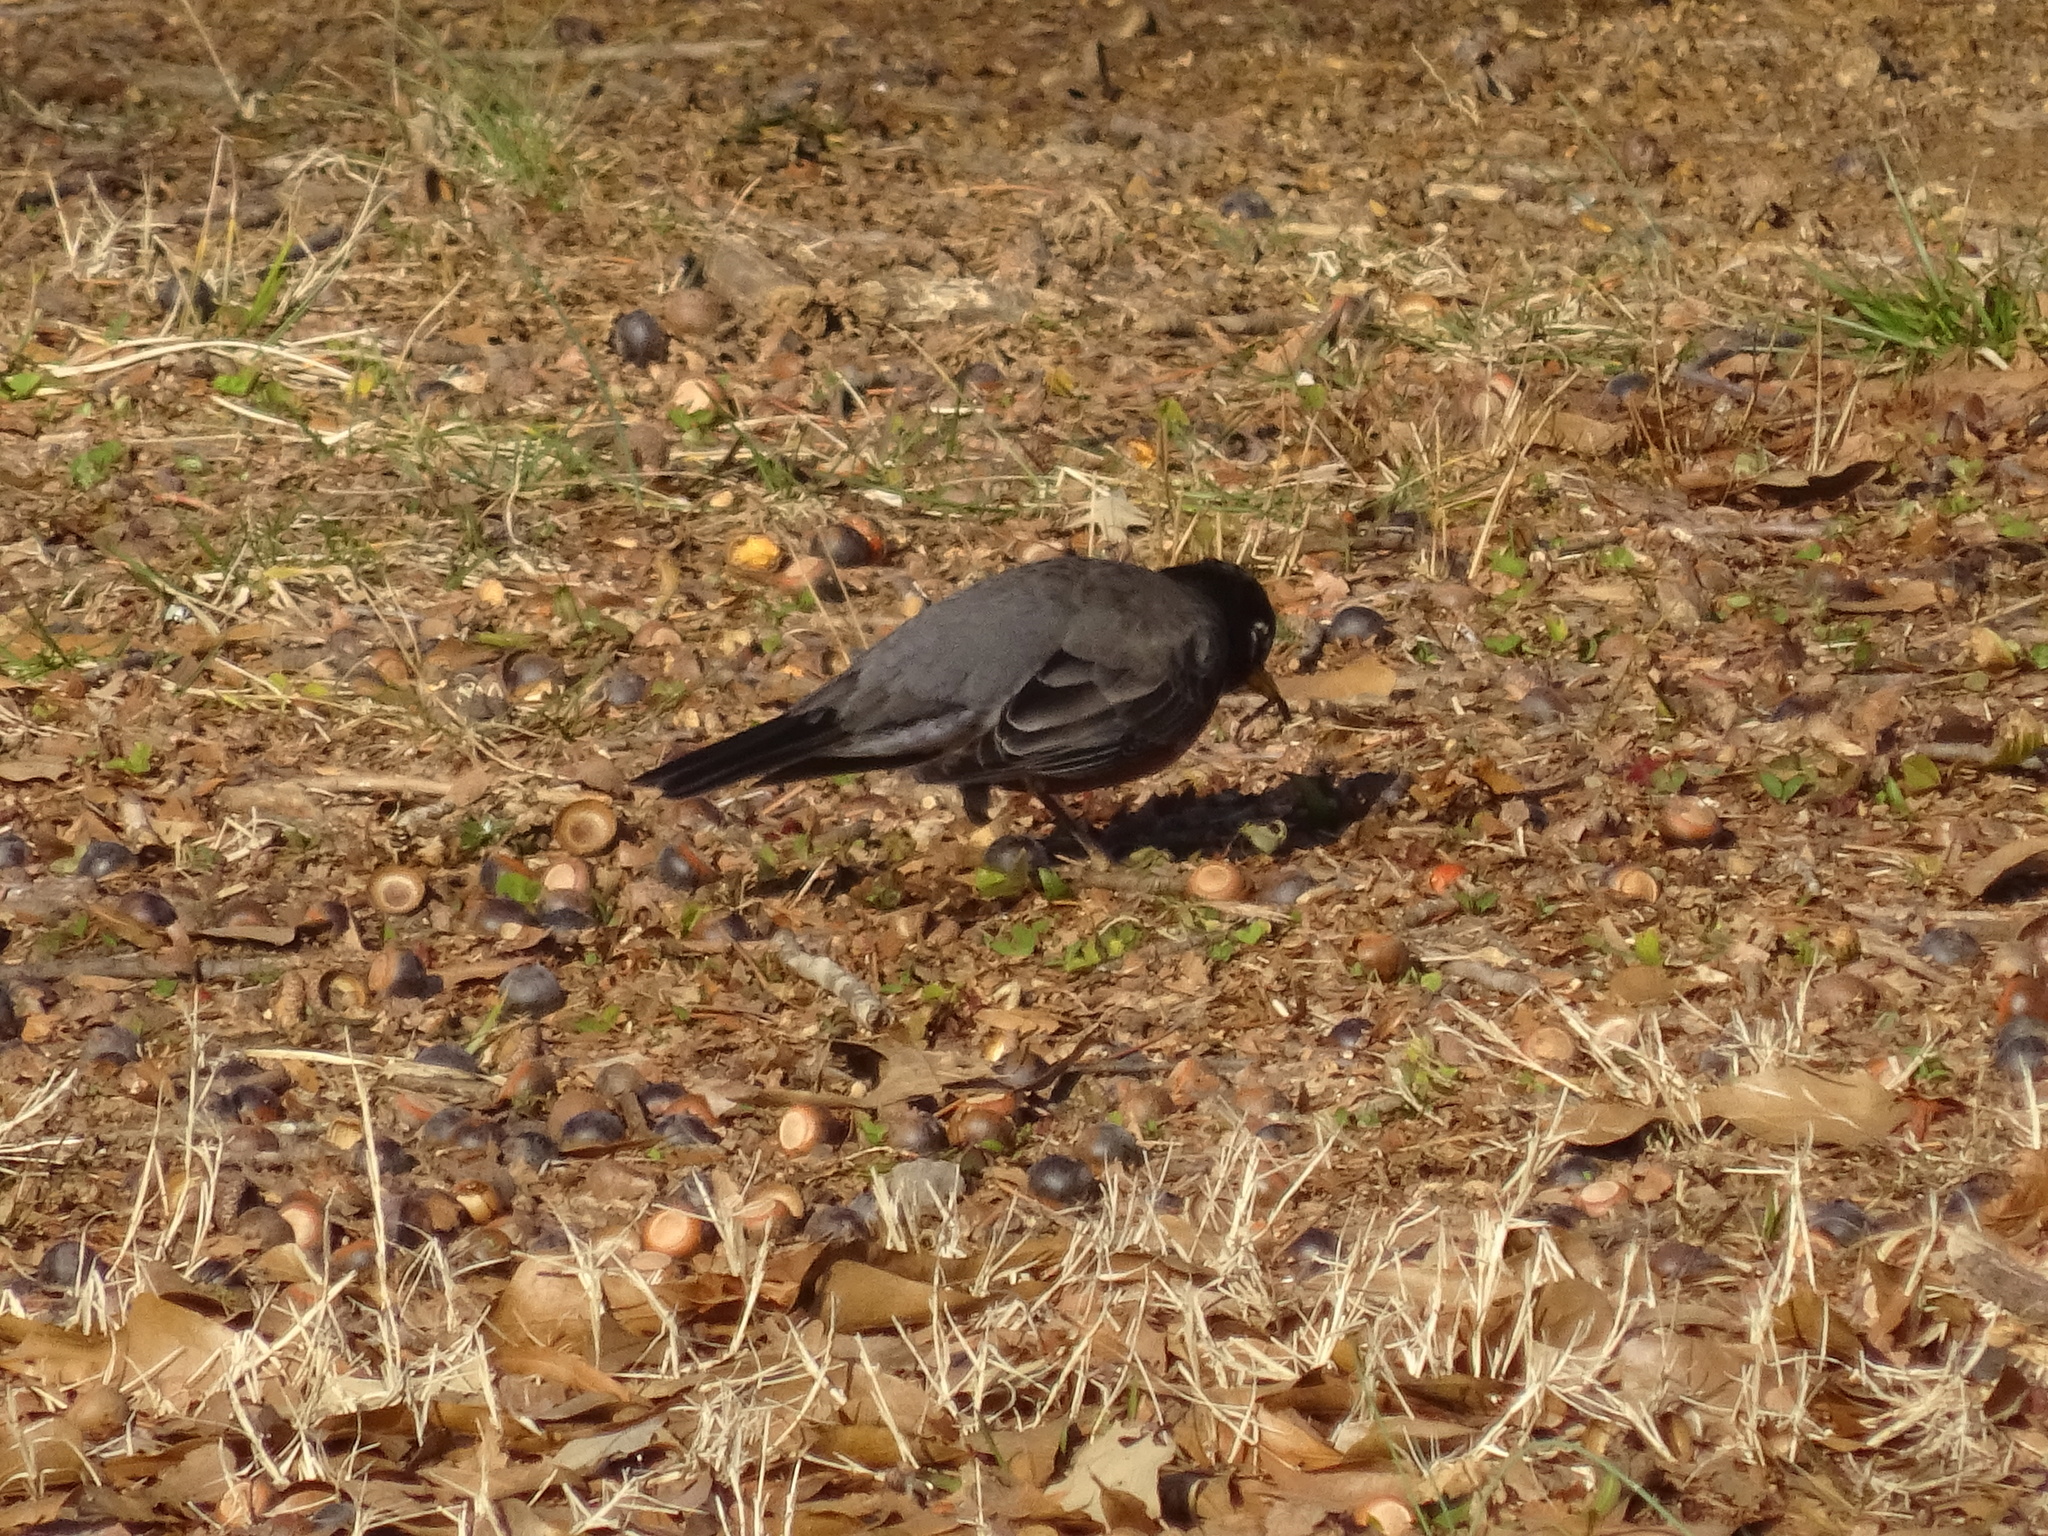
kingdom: Animalia
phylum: Chordata
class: Aves
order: Passeriformes
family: Turdidae
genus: Turdus
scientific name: Turdus migratorius
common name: American robin
